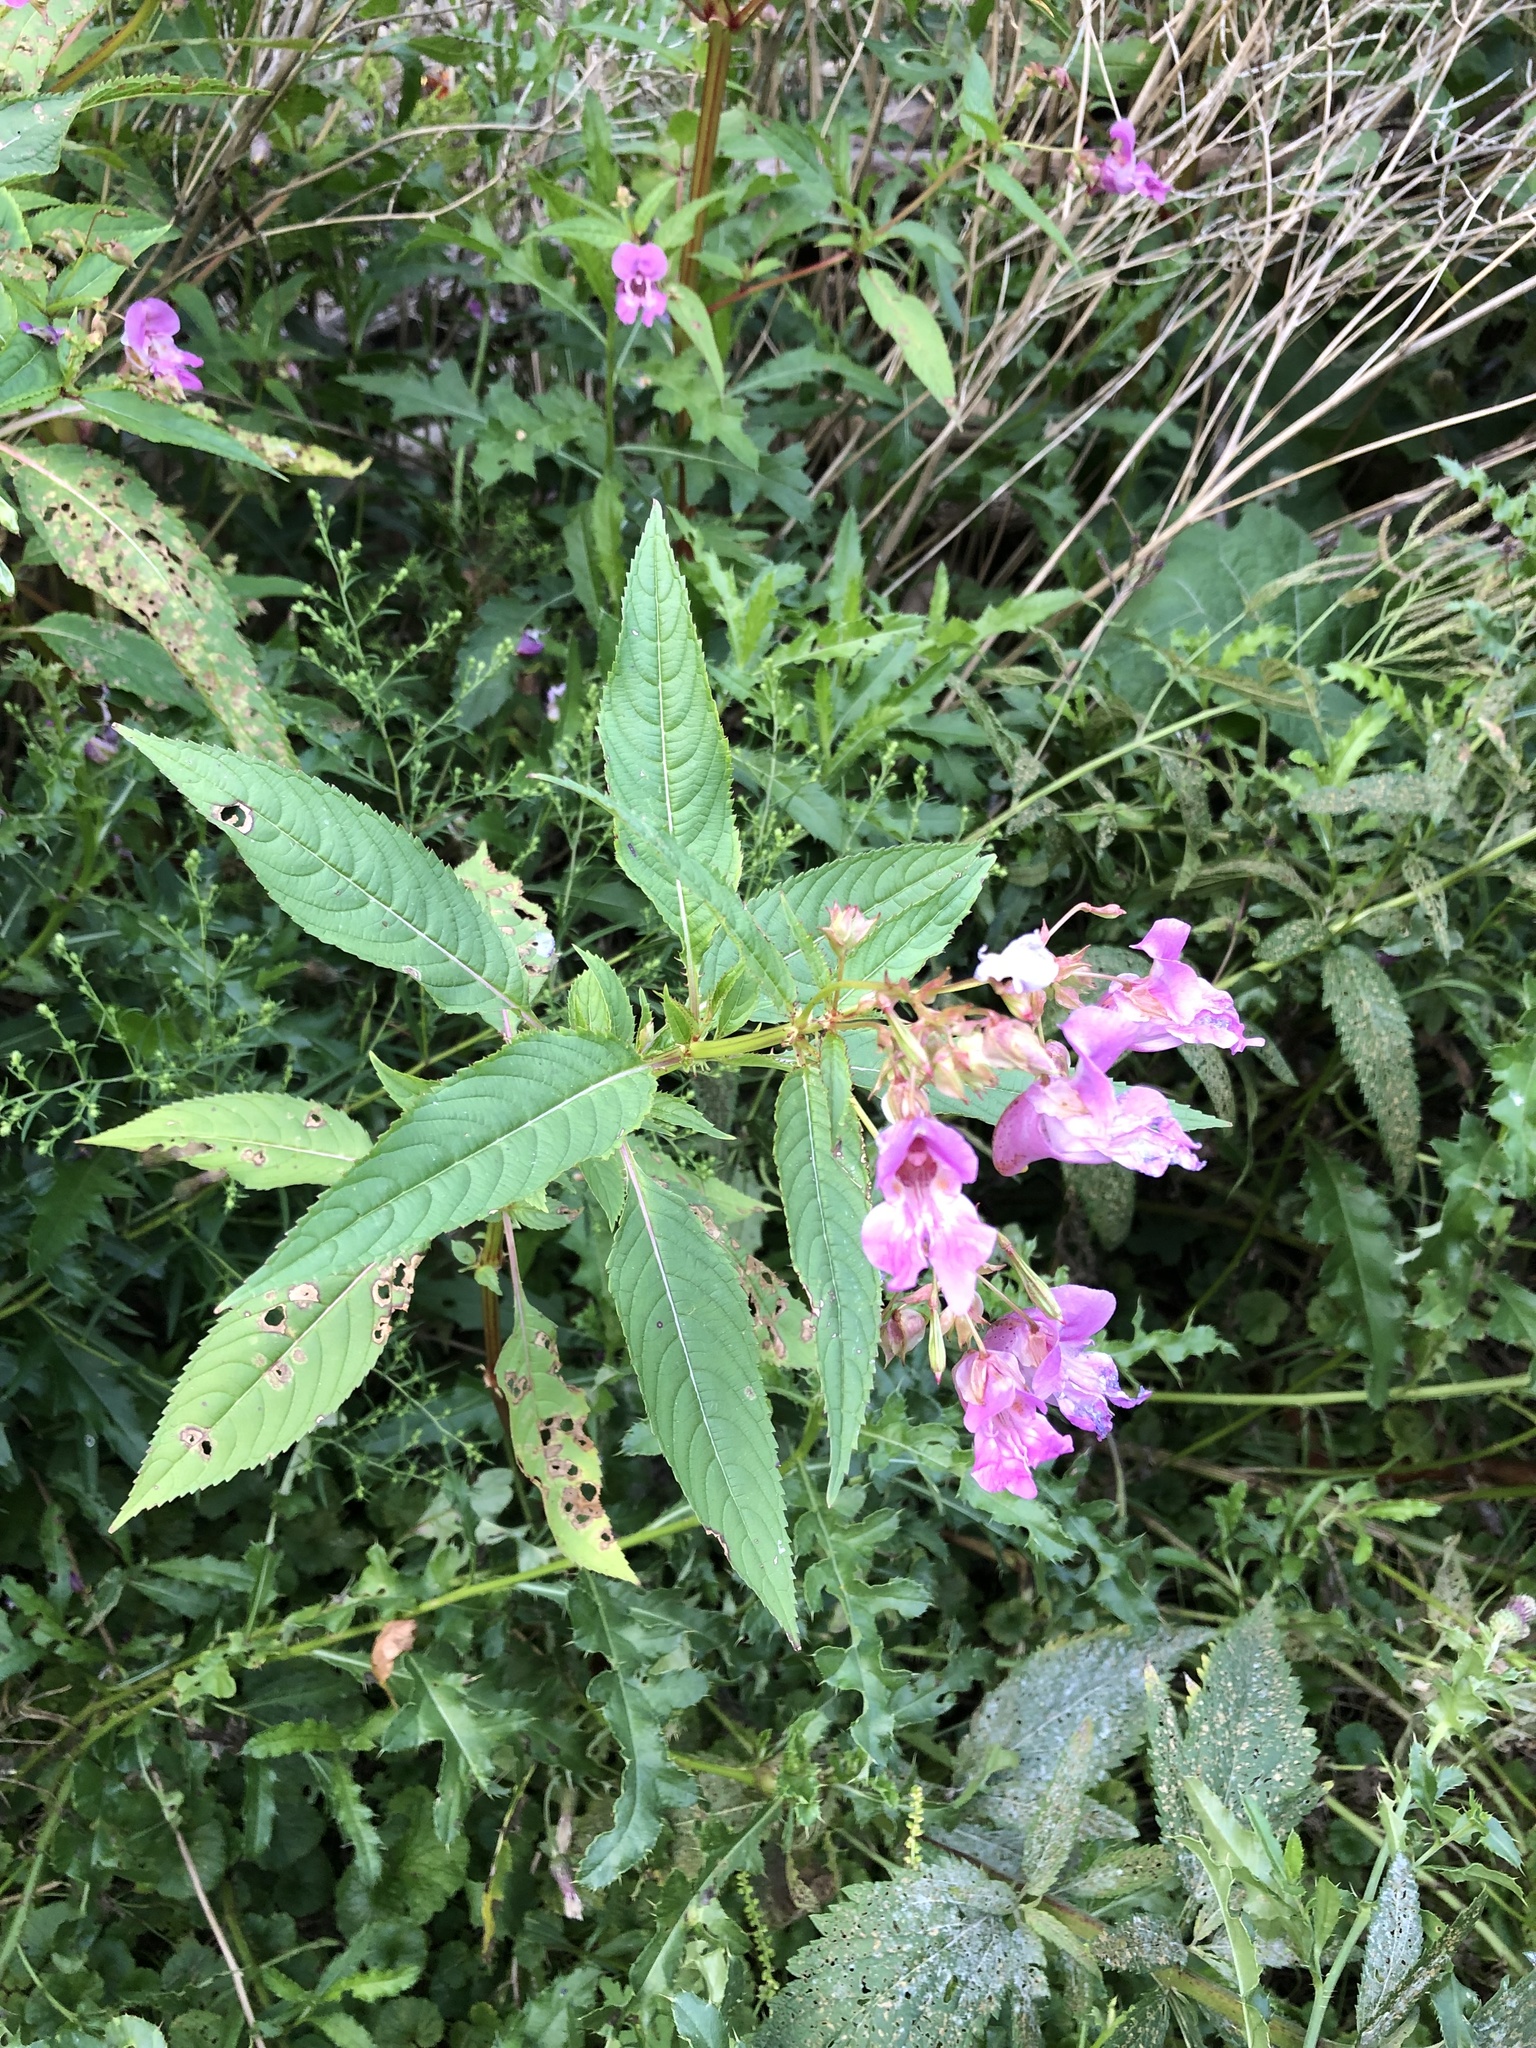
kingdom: Plantae
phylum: Tracheophyta
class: Magnoliopsida
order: Ericales
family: Balsaminaceae
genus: Impatiens
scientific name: Impatiens glandulifera
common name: Himalayan balsam
